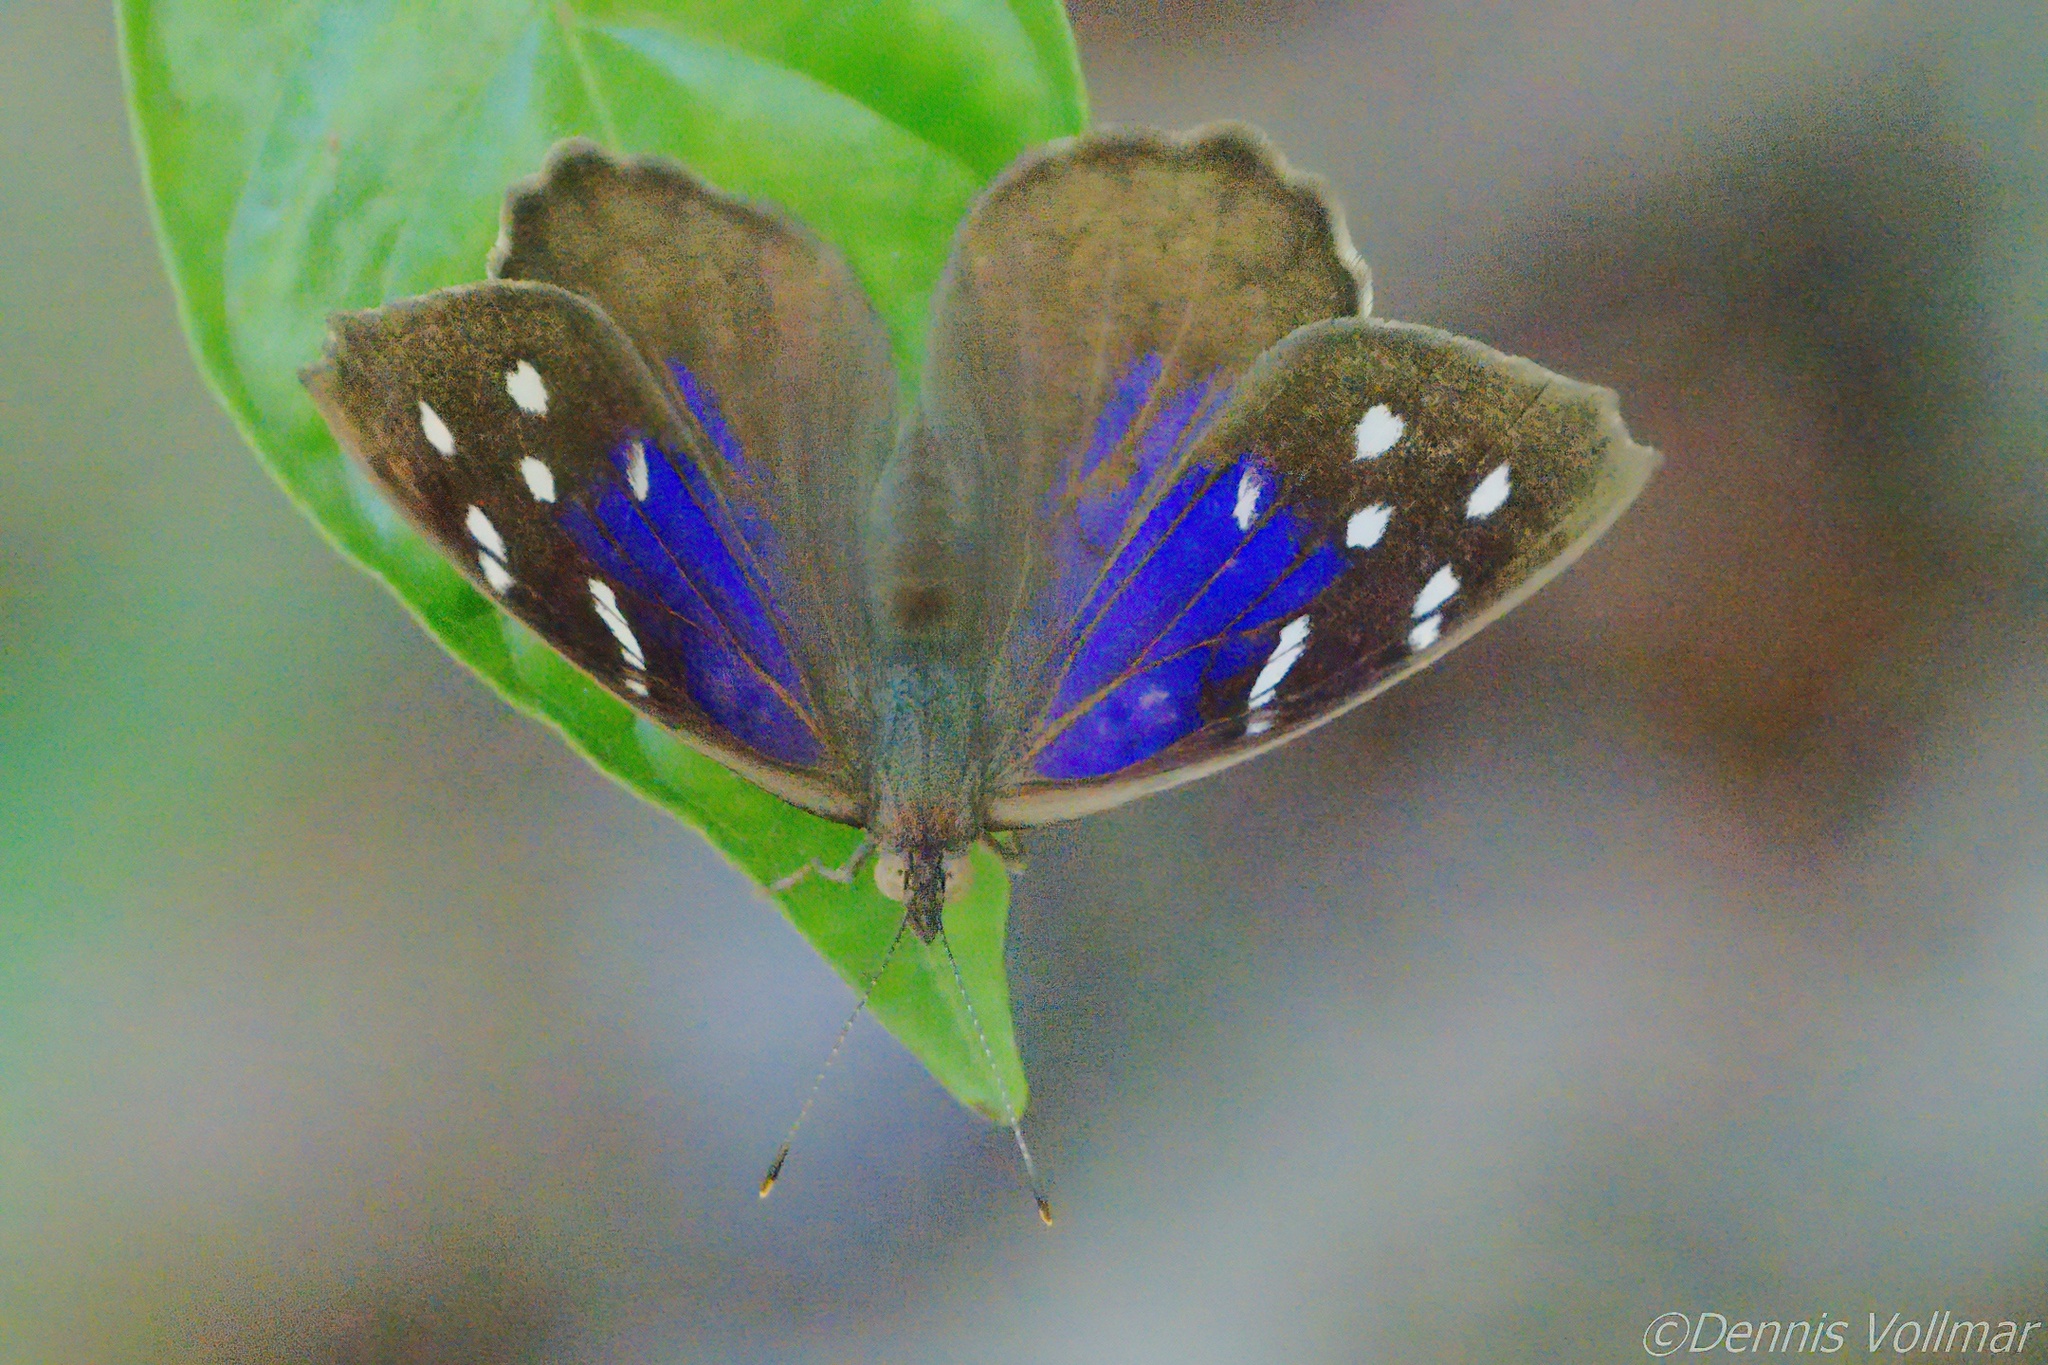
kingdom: Animalia
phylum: Arthropoda
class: Insecta
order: Lepidoptera
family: Nymphalidae
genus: Eunica
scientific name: Eunica tatila
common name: Florida purplewing
